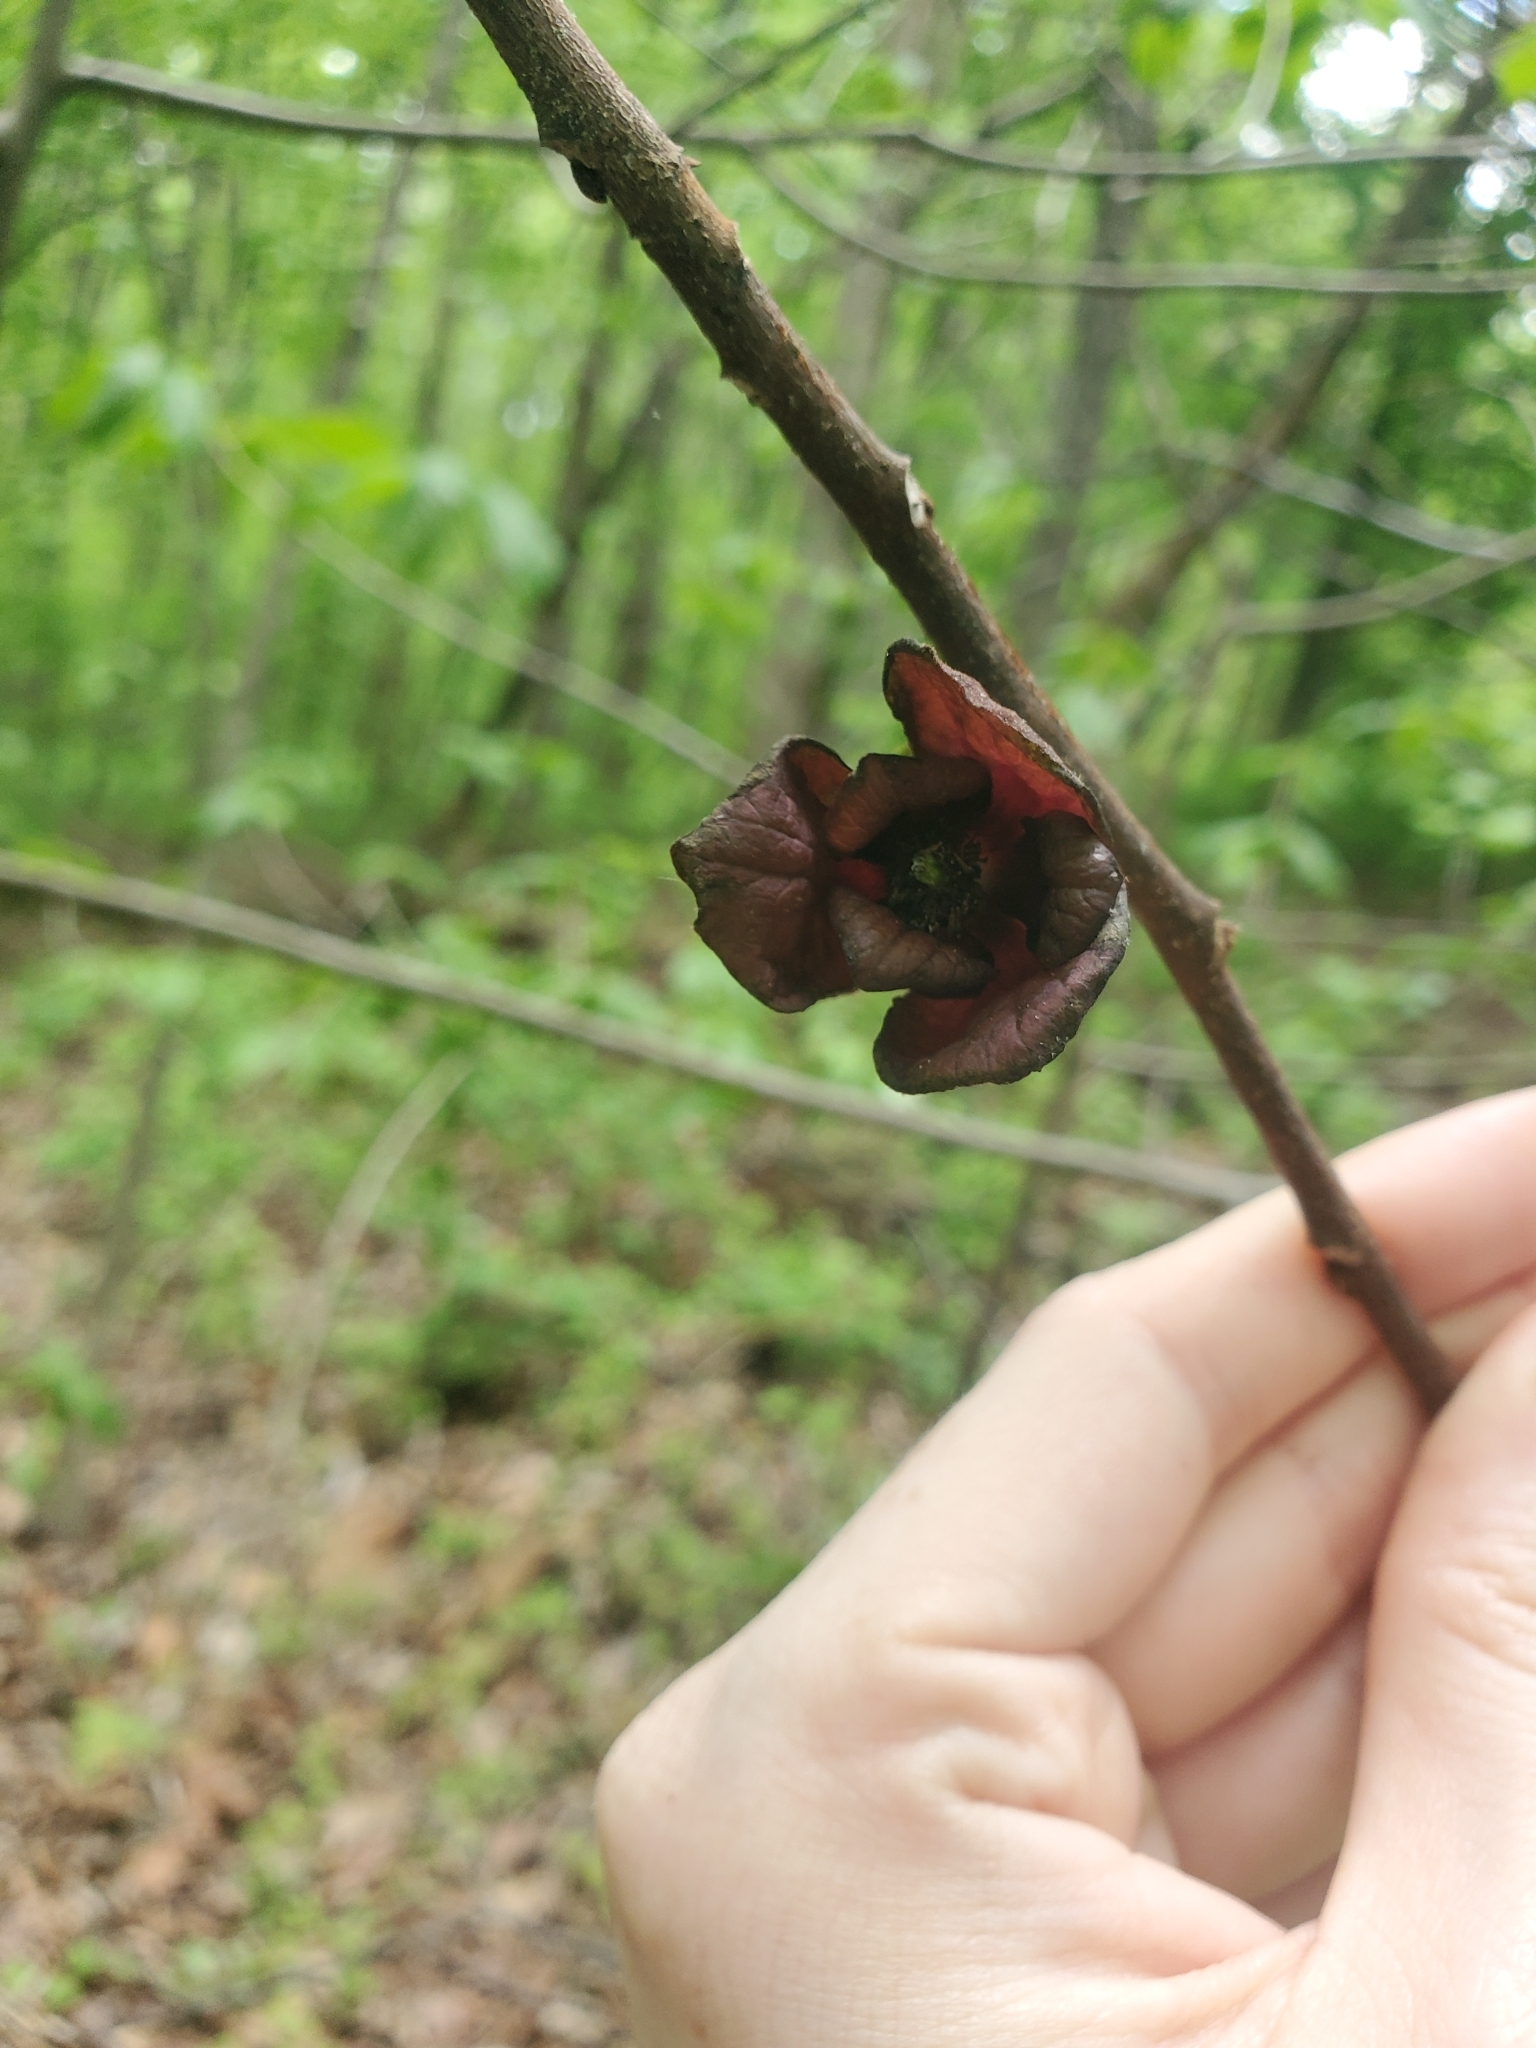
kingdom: Plantae
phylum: Tracheophyta
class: Magnoliopsida
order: Magnoliales
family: Annonaceae
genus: Asimina
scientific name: Asimina triloba
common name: Dog-banana
